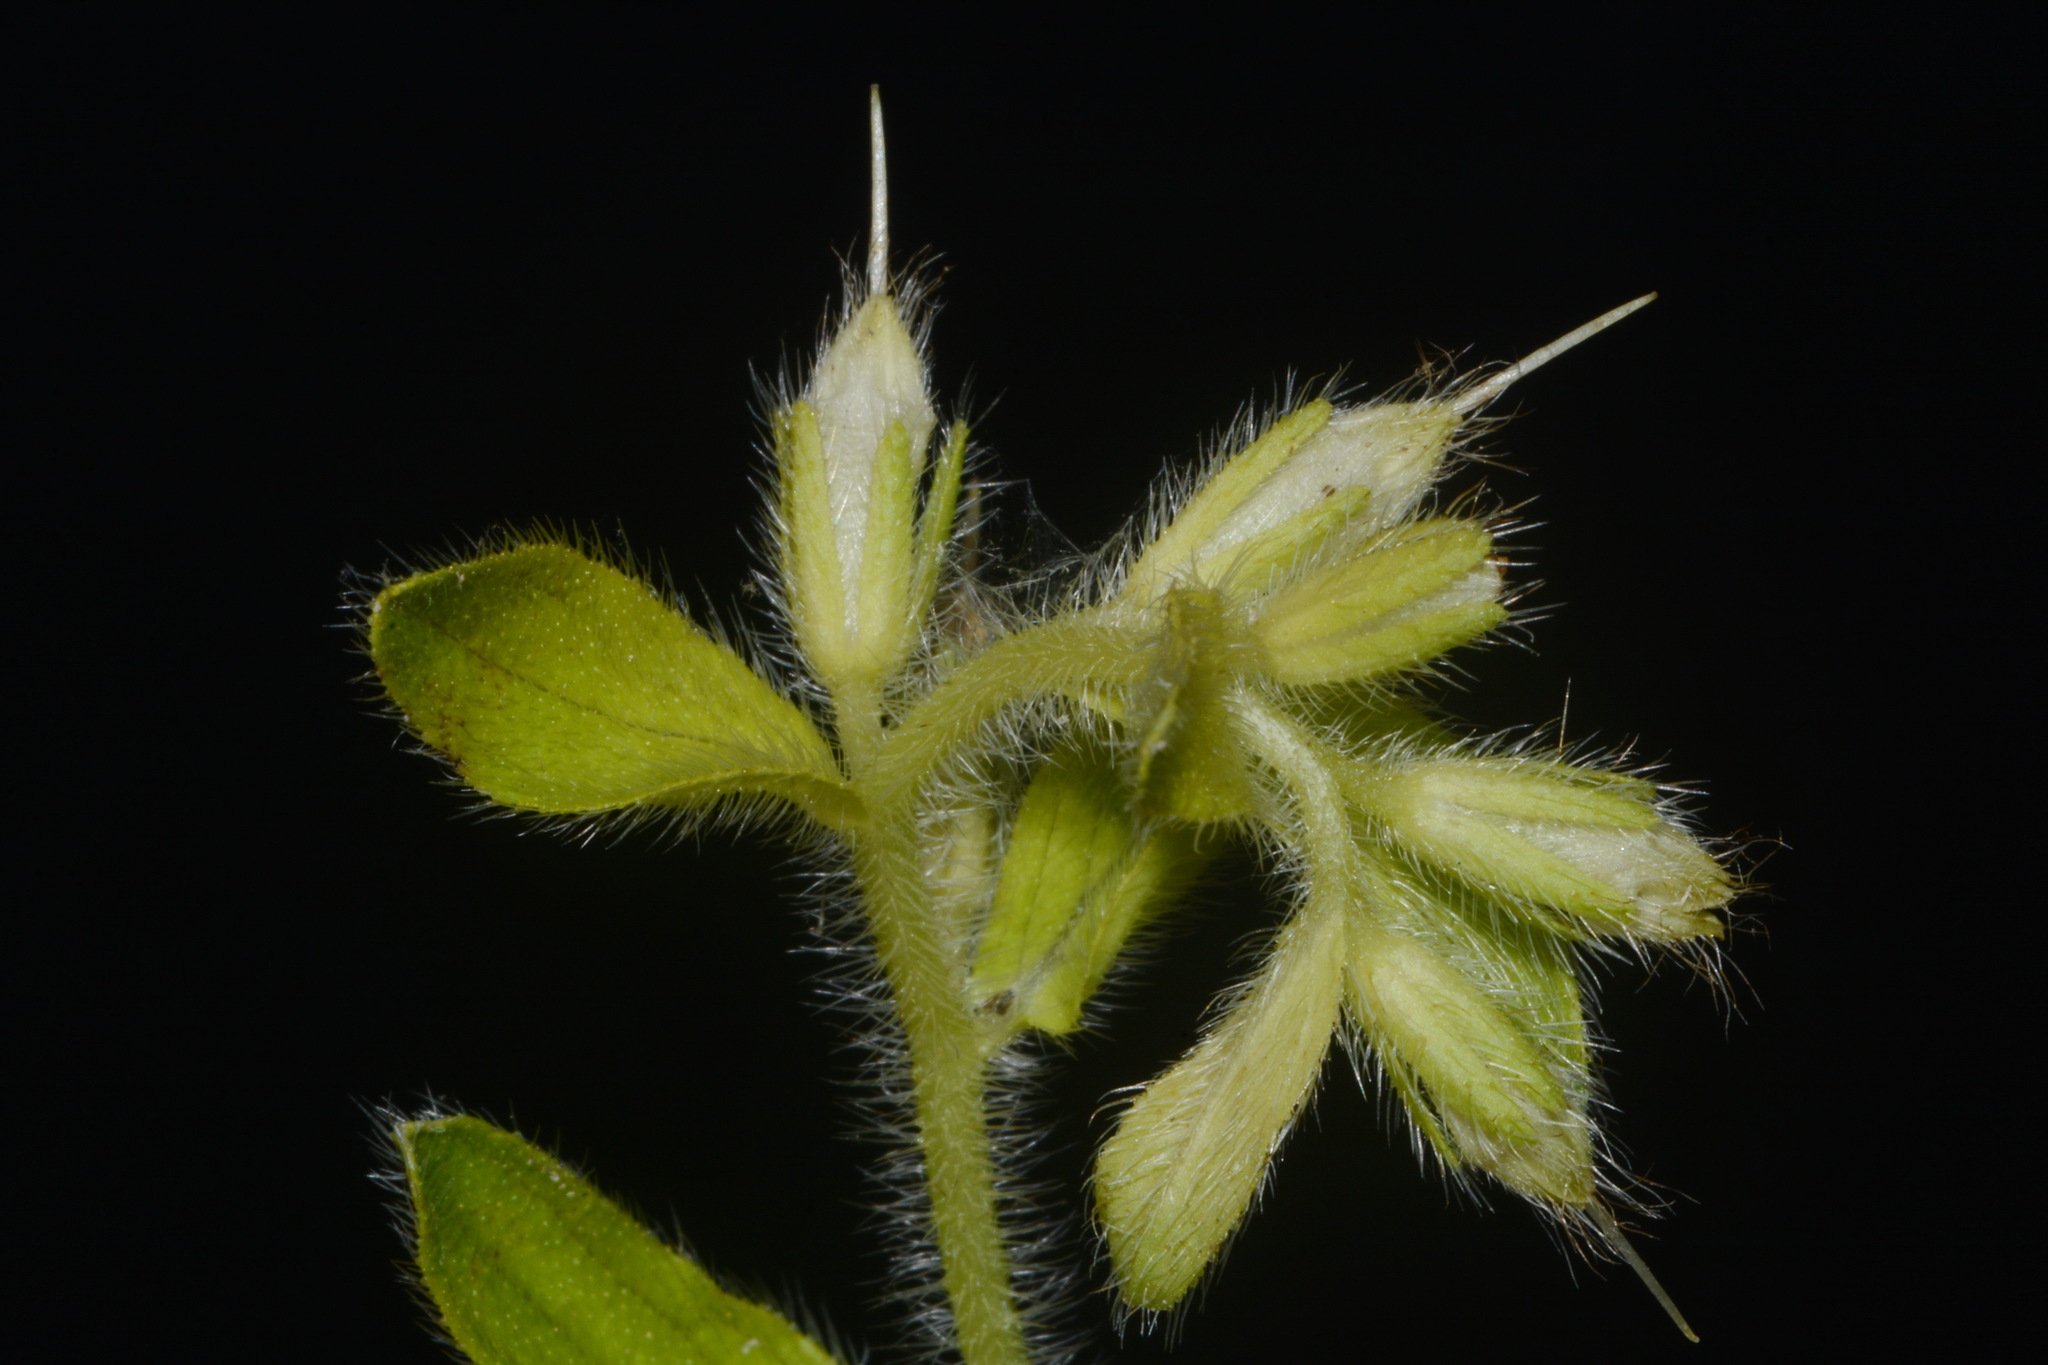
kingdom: Plantae
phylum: Tracheophyta
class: Magnoliopsida
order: Boraginales
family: Boraginaceae
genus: Lithospermum
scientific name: Lithospermum decipiens
